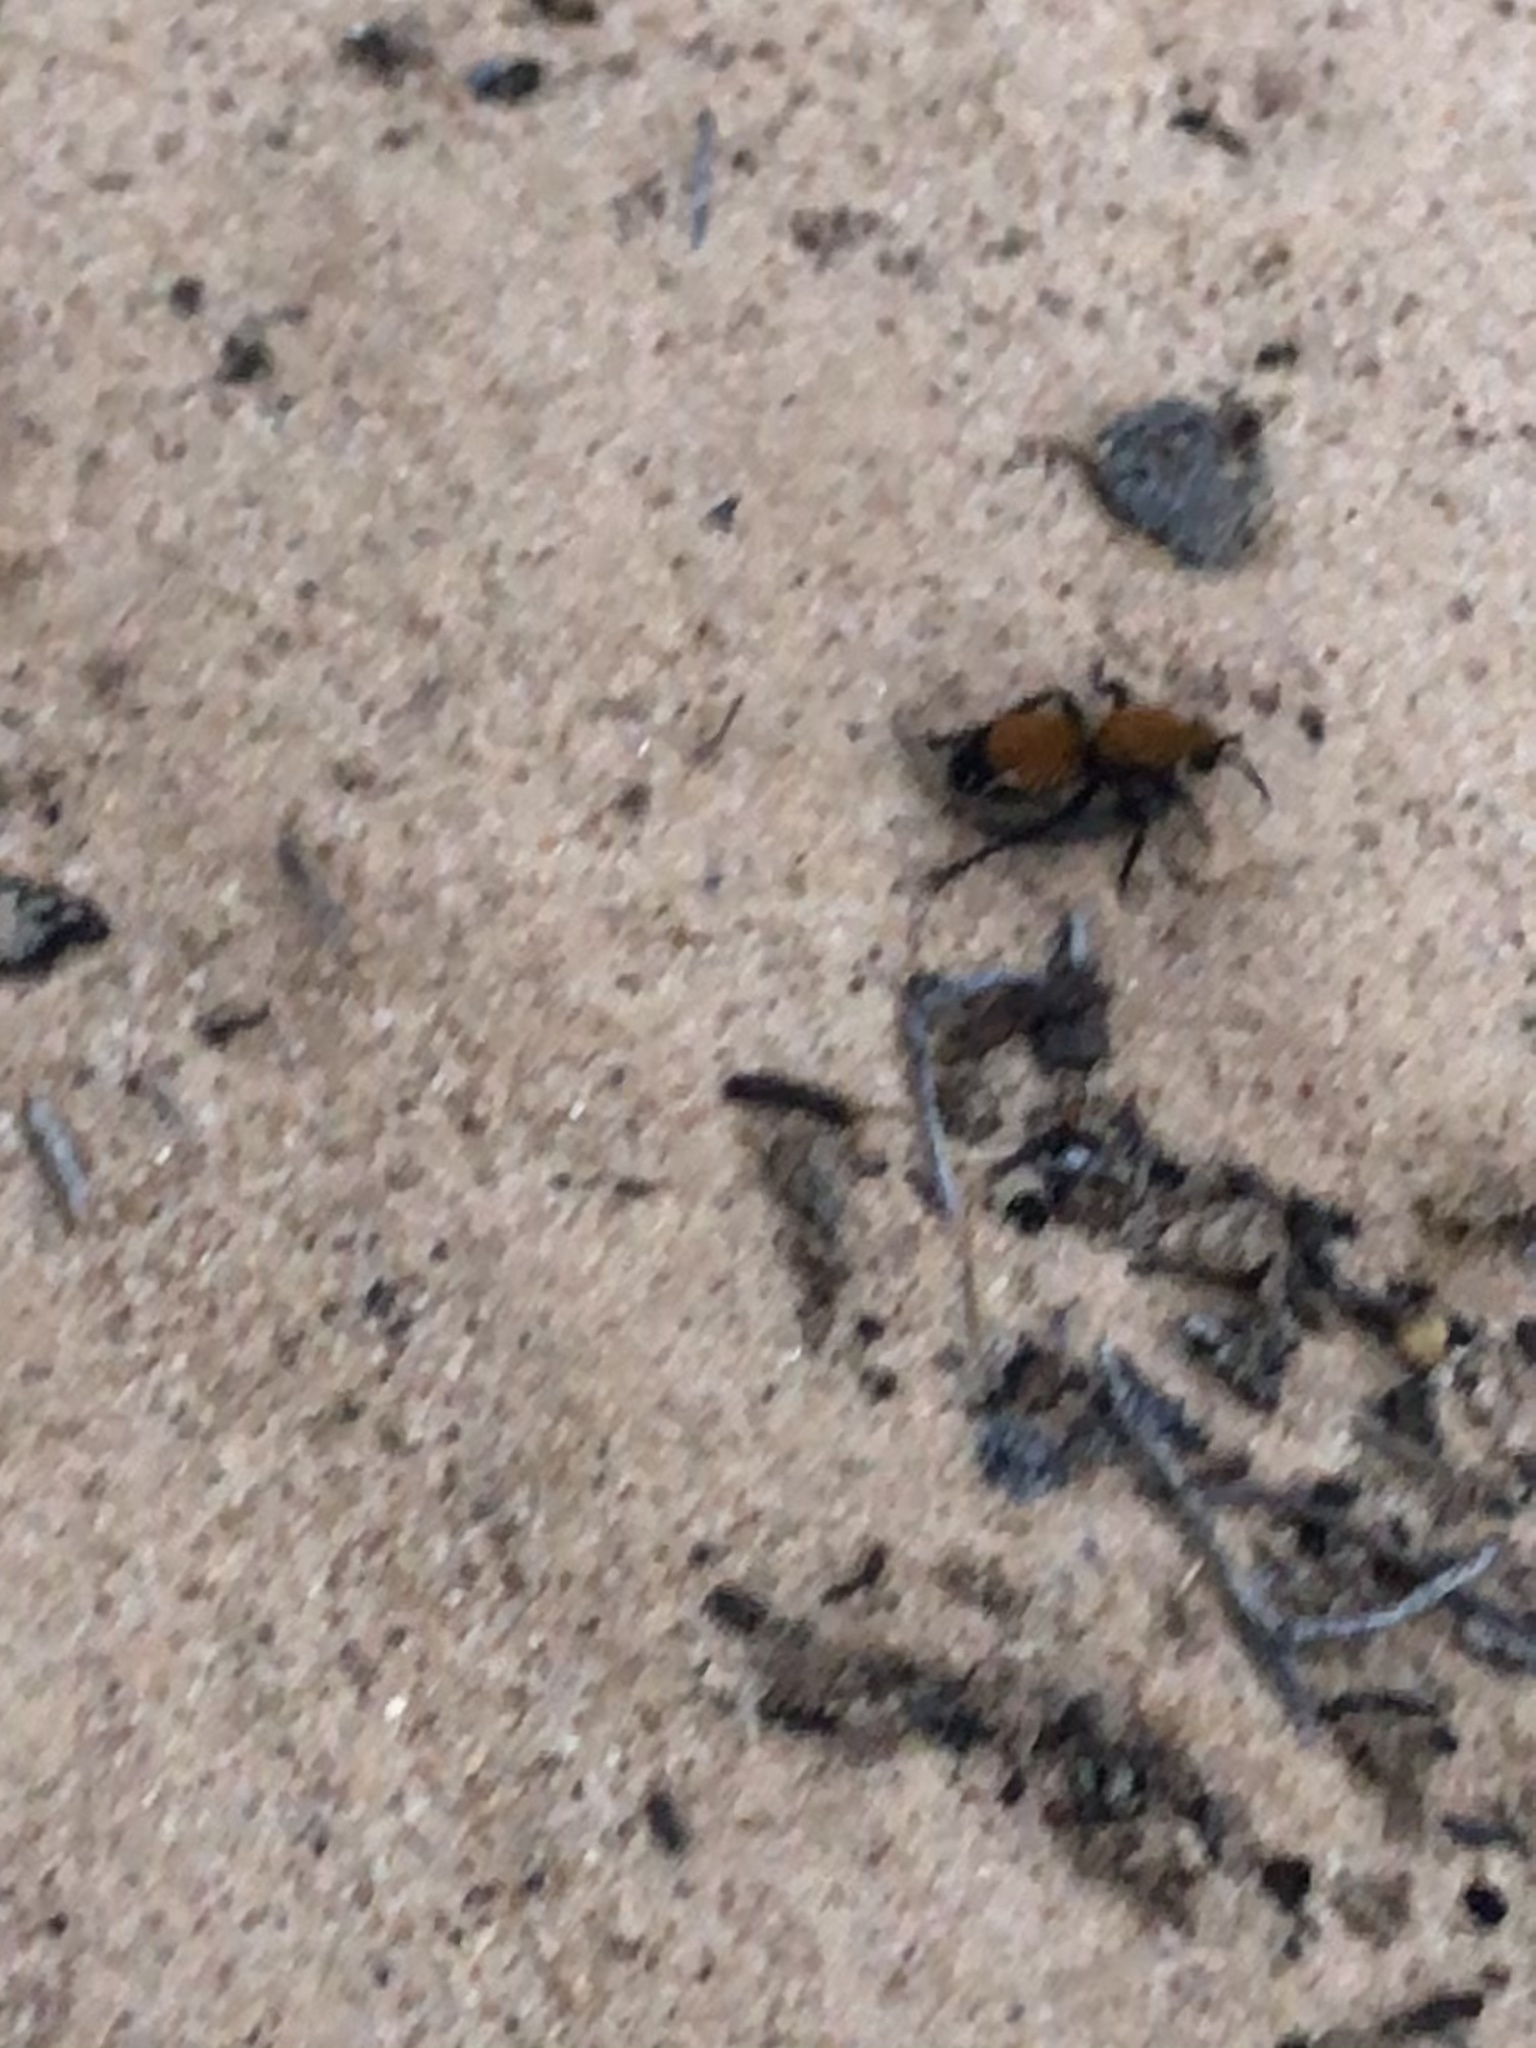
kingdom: Animalia
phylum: Arthropoda
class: Insecta
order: Hymenoptera
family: Mutillidae
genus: Dasymutilla
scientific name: Dasymutilla
